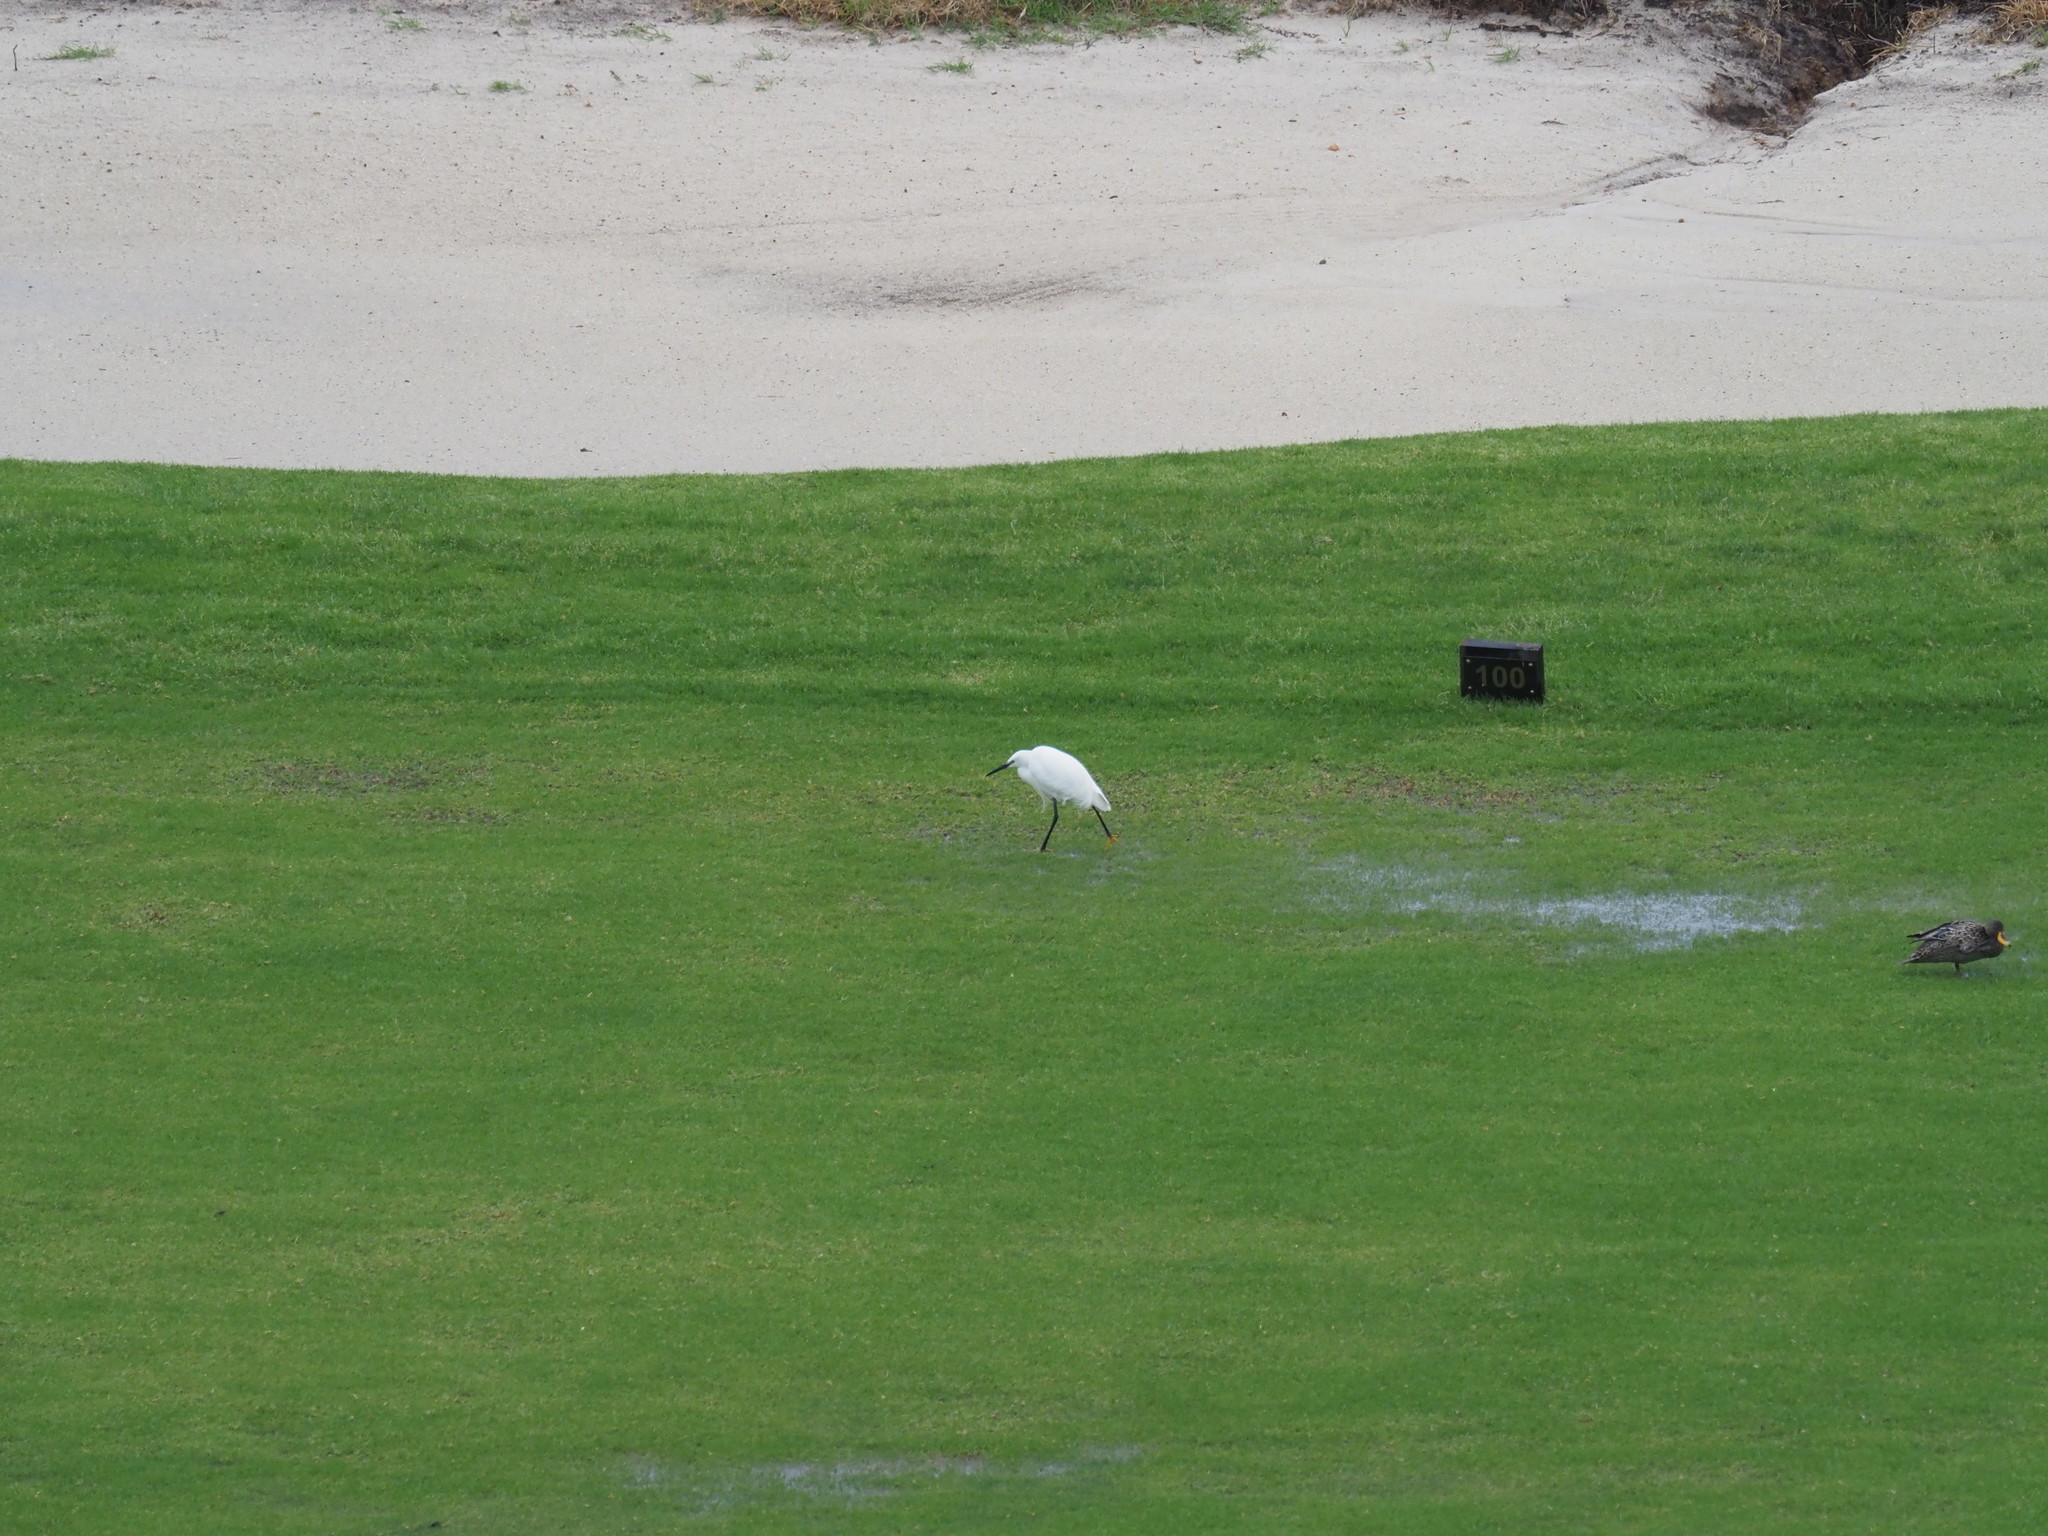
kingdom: Animalia
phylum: Chordata
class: Aves
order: Anseriformes
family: Anatidae
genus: Anas
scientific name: Anas undulata
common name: Yellow-billed duck
